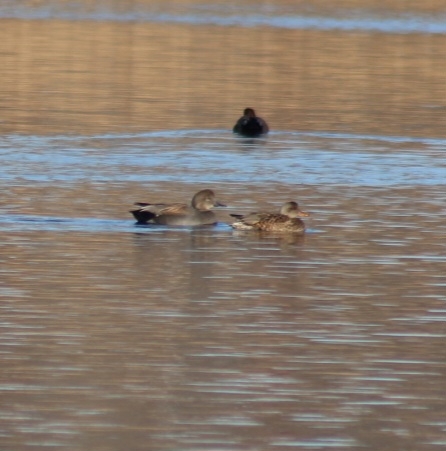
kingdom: Animalia
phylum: Chordata
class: Aves
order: Anseriformes
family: Anatidae
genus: Mareca
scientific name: Mareca strepera
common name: Gadwall
